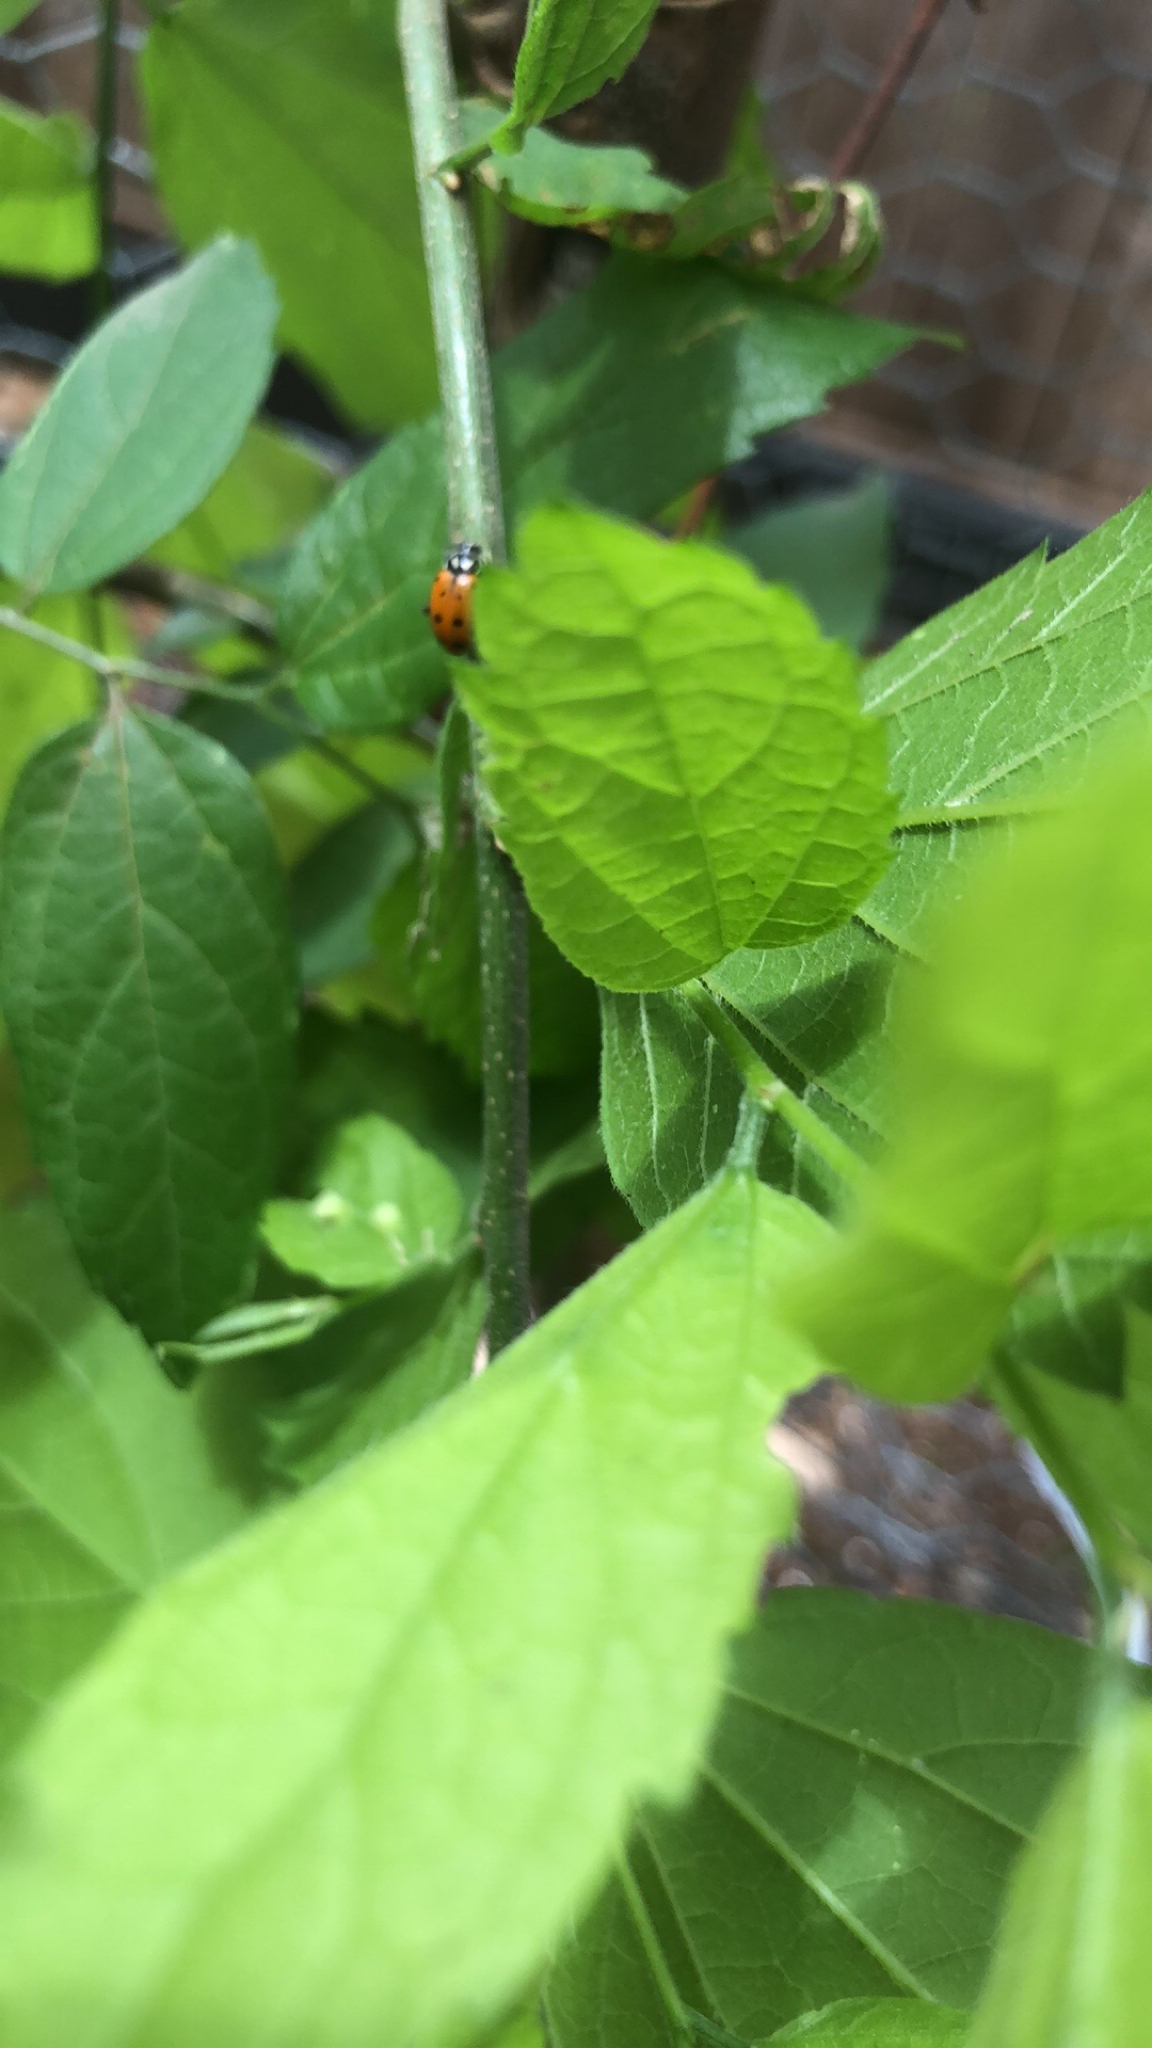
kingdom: Animalia
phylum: Arthropoda
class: Insecta
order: Coleoptera
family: Coccinellidae
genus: Hippodamia
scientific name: Hippodamia convergens
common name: Convergent lady beetle
